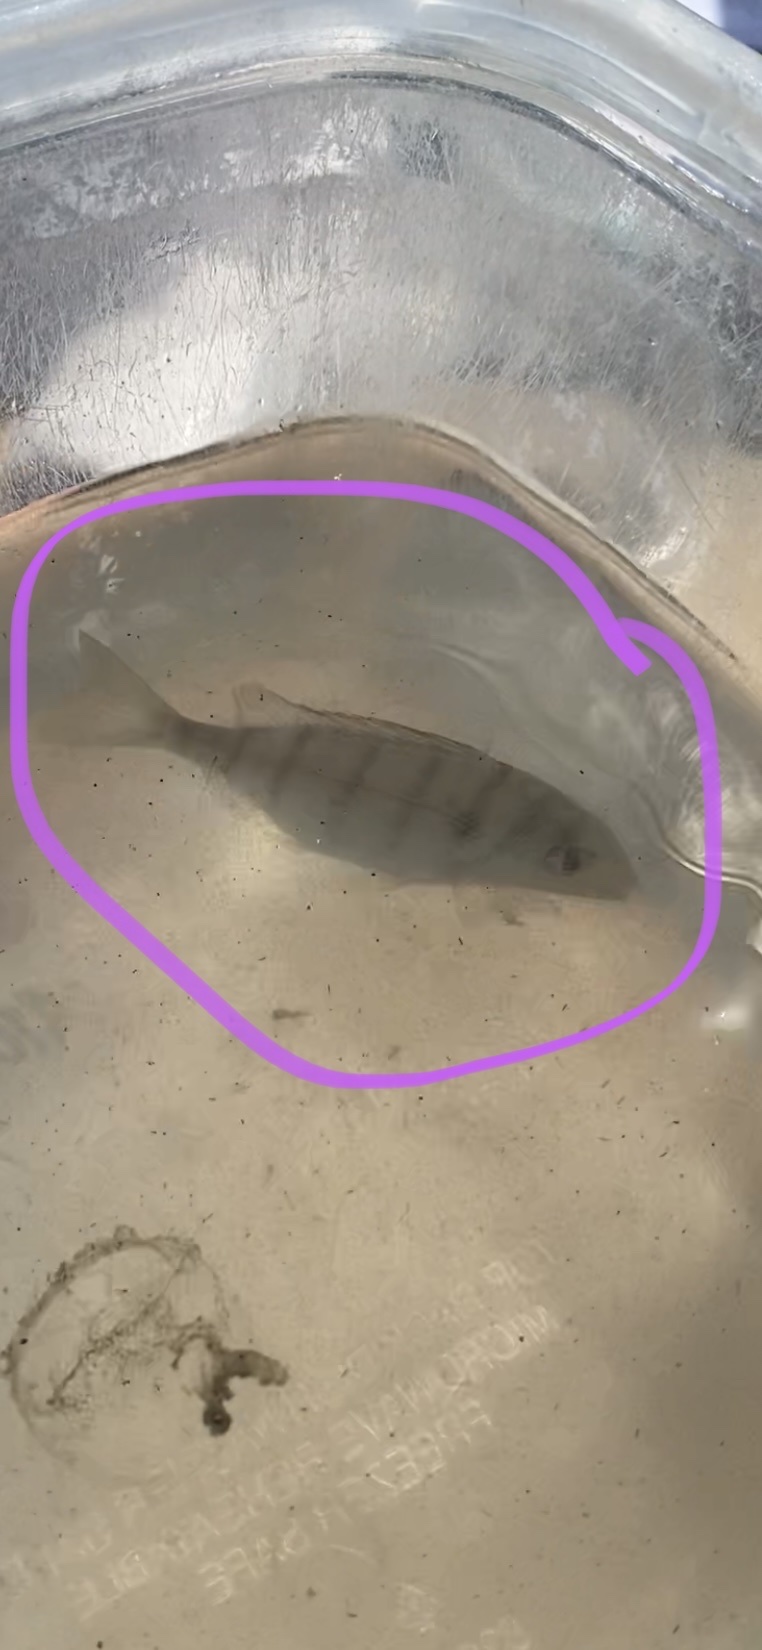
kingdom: Animalia
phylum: Chordata
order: Perciformes
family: Sparidae
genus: Lagodon
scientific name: Lagodon rhomboides
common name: Pinfish
